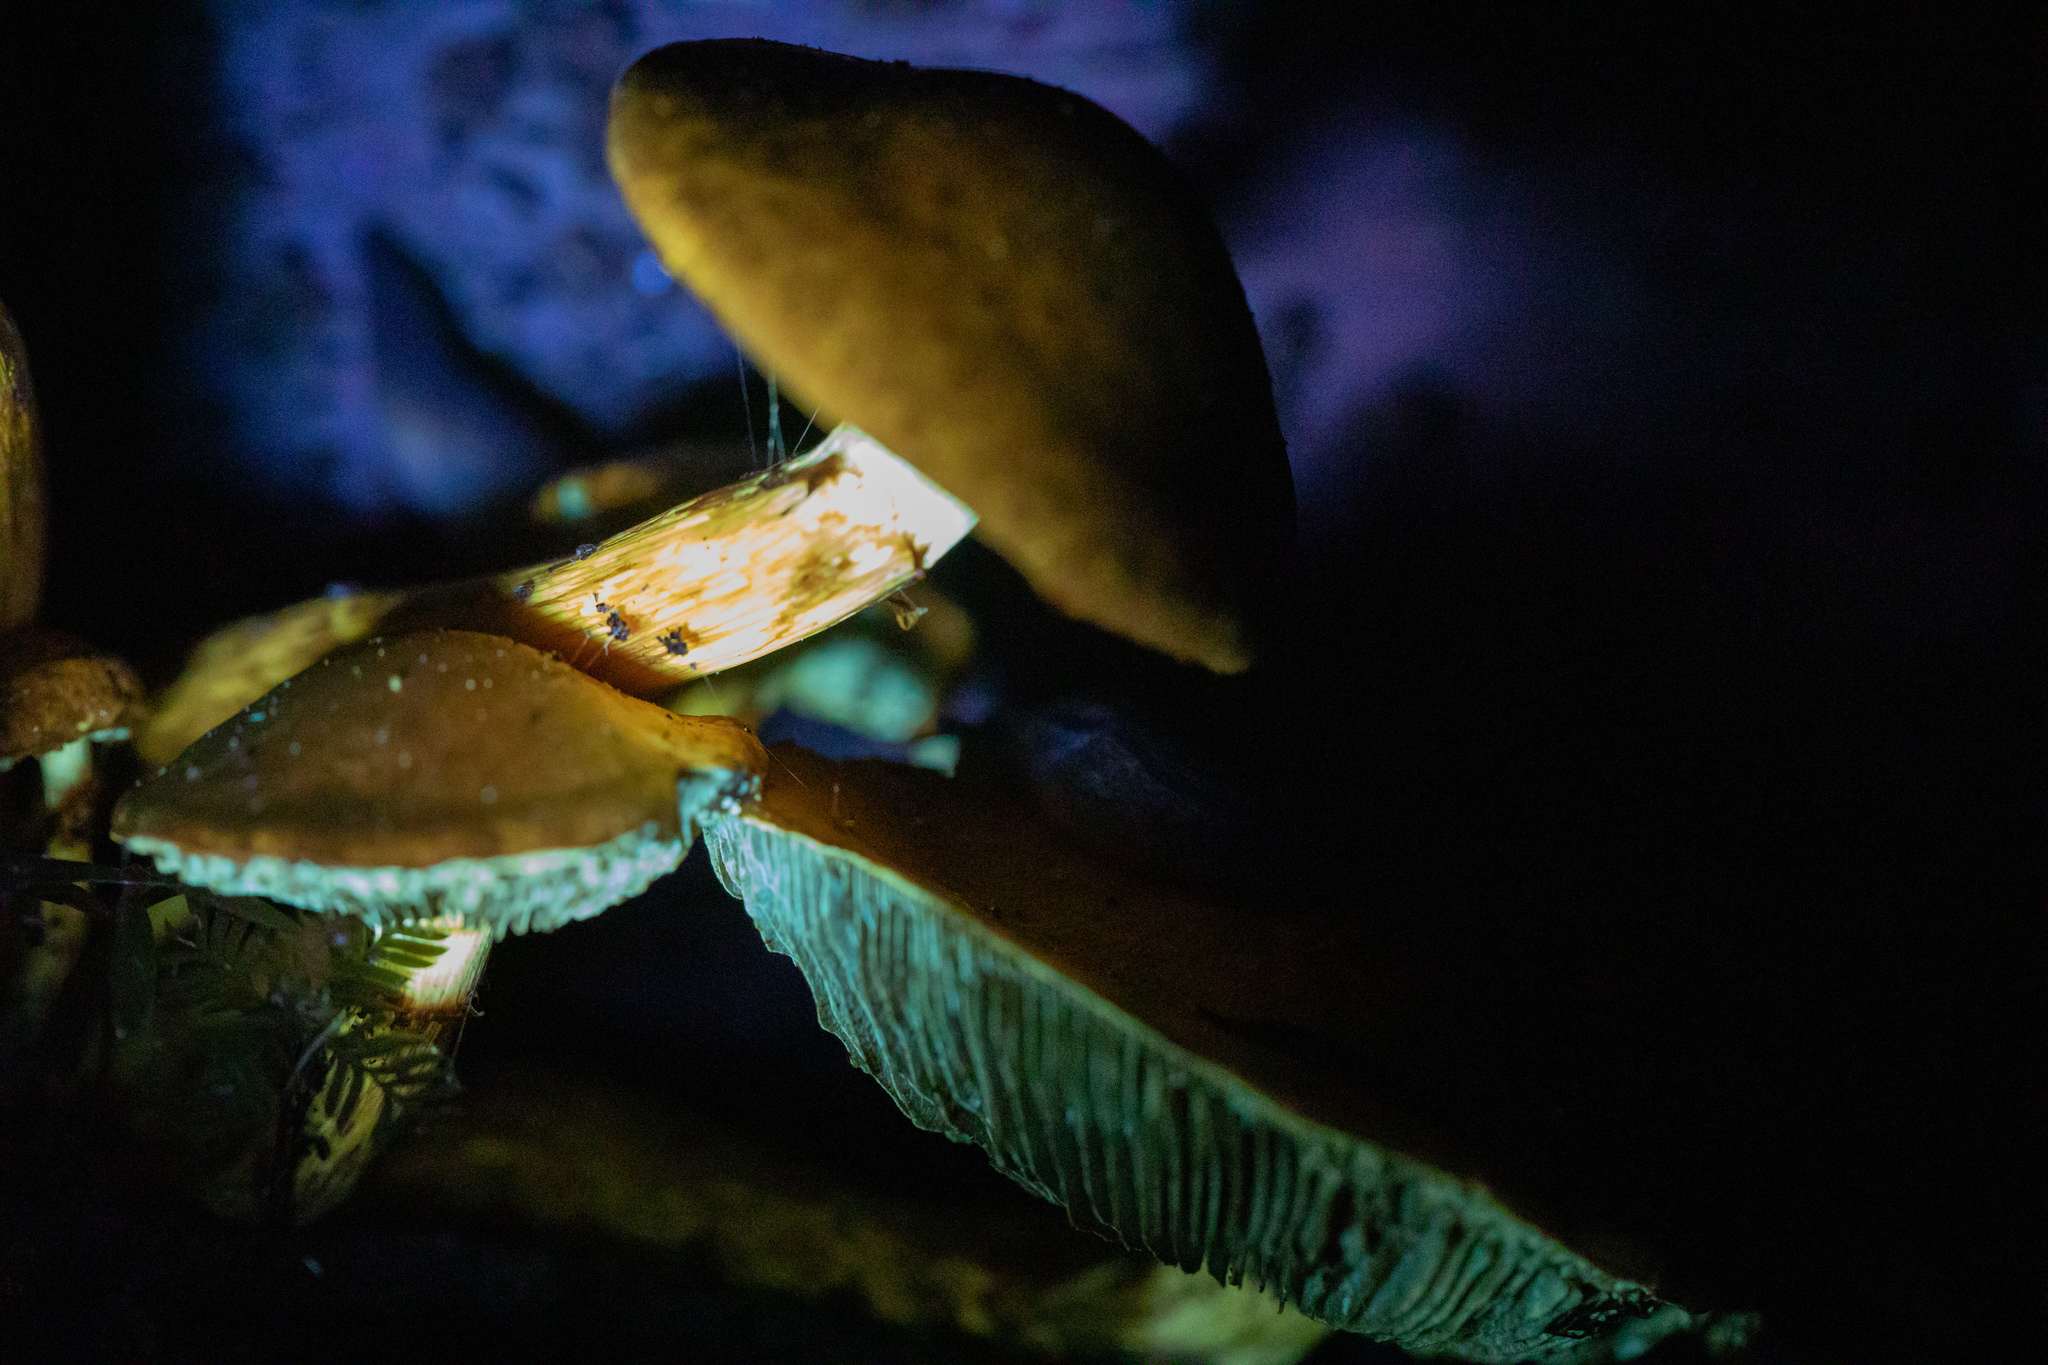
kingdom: Fungi
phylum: Basidiomycota
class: Agaricomycetes
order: Agaricales
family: Hymenogastraceae
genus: Gymnopilus
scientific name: Gymnopilus junonius
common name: Spectacular rustgill
